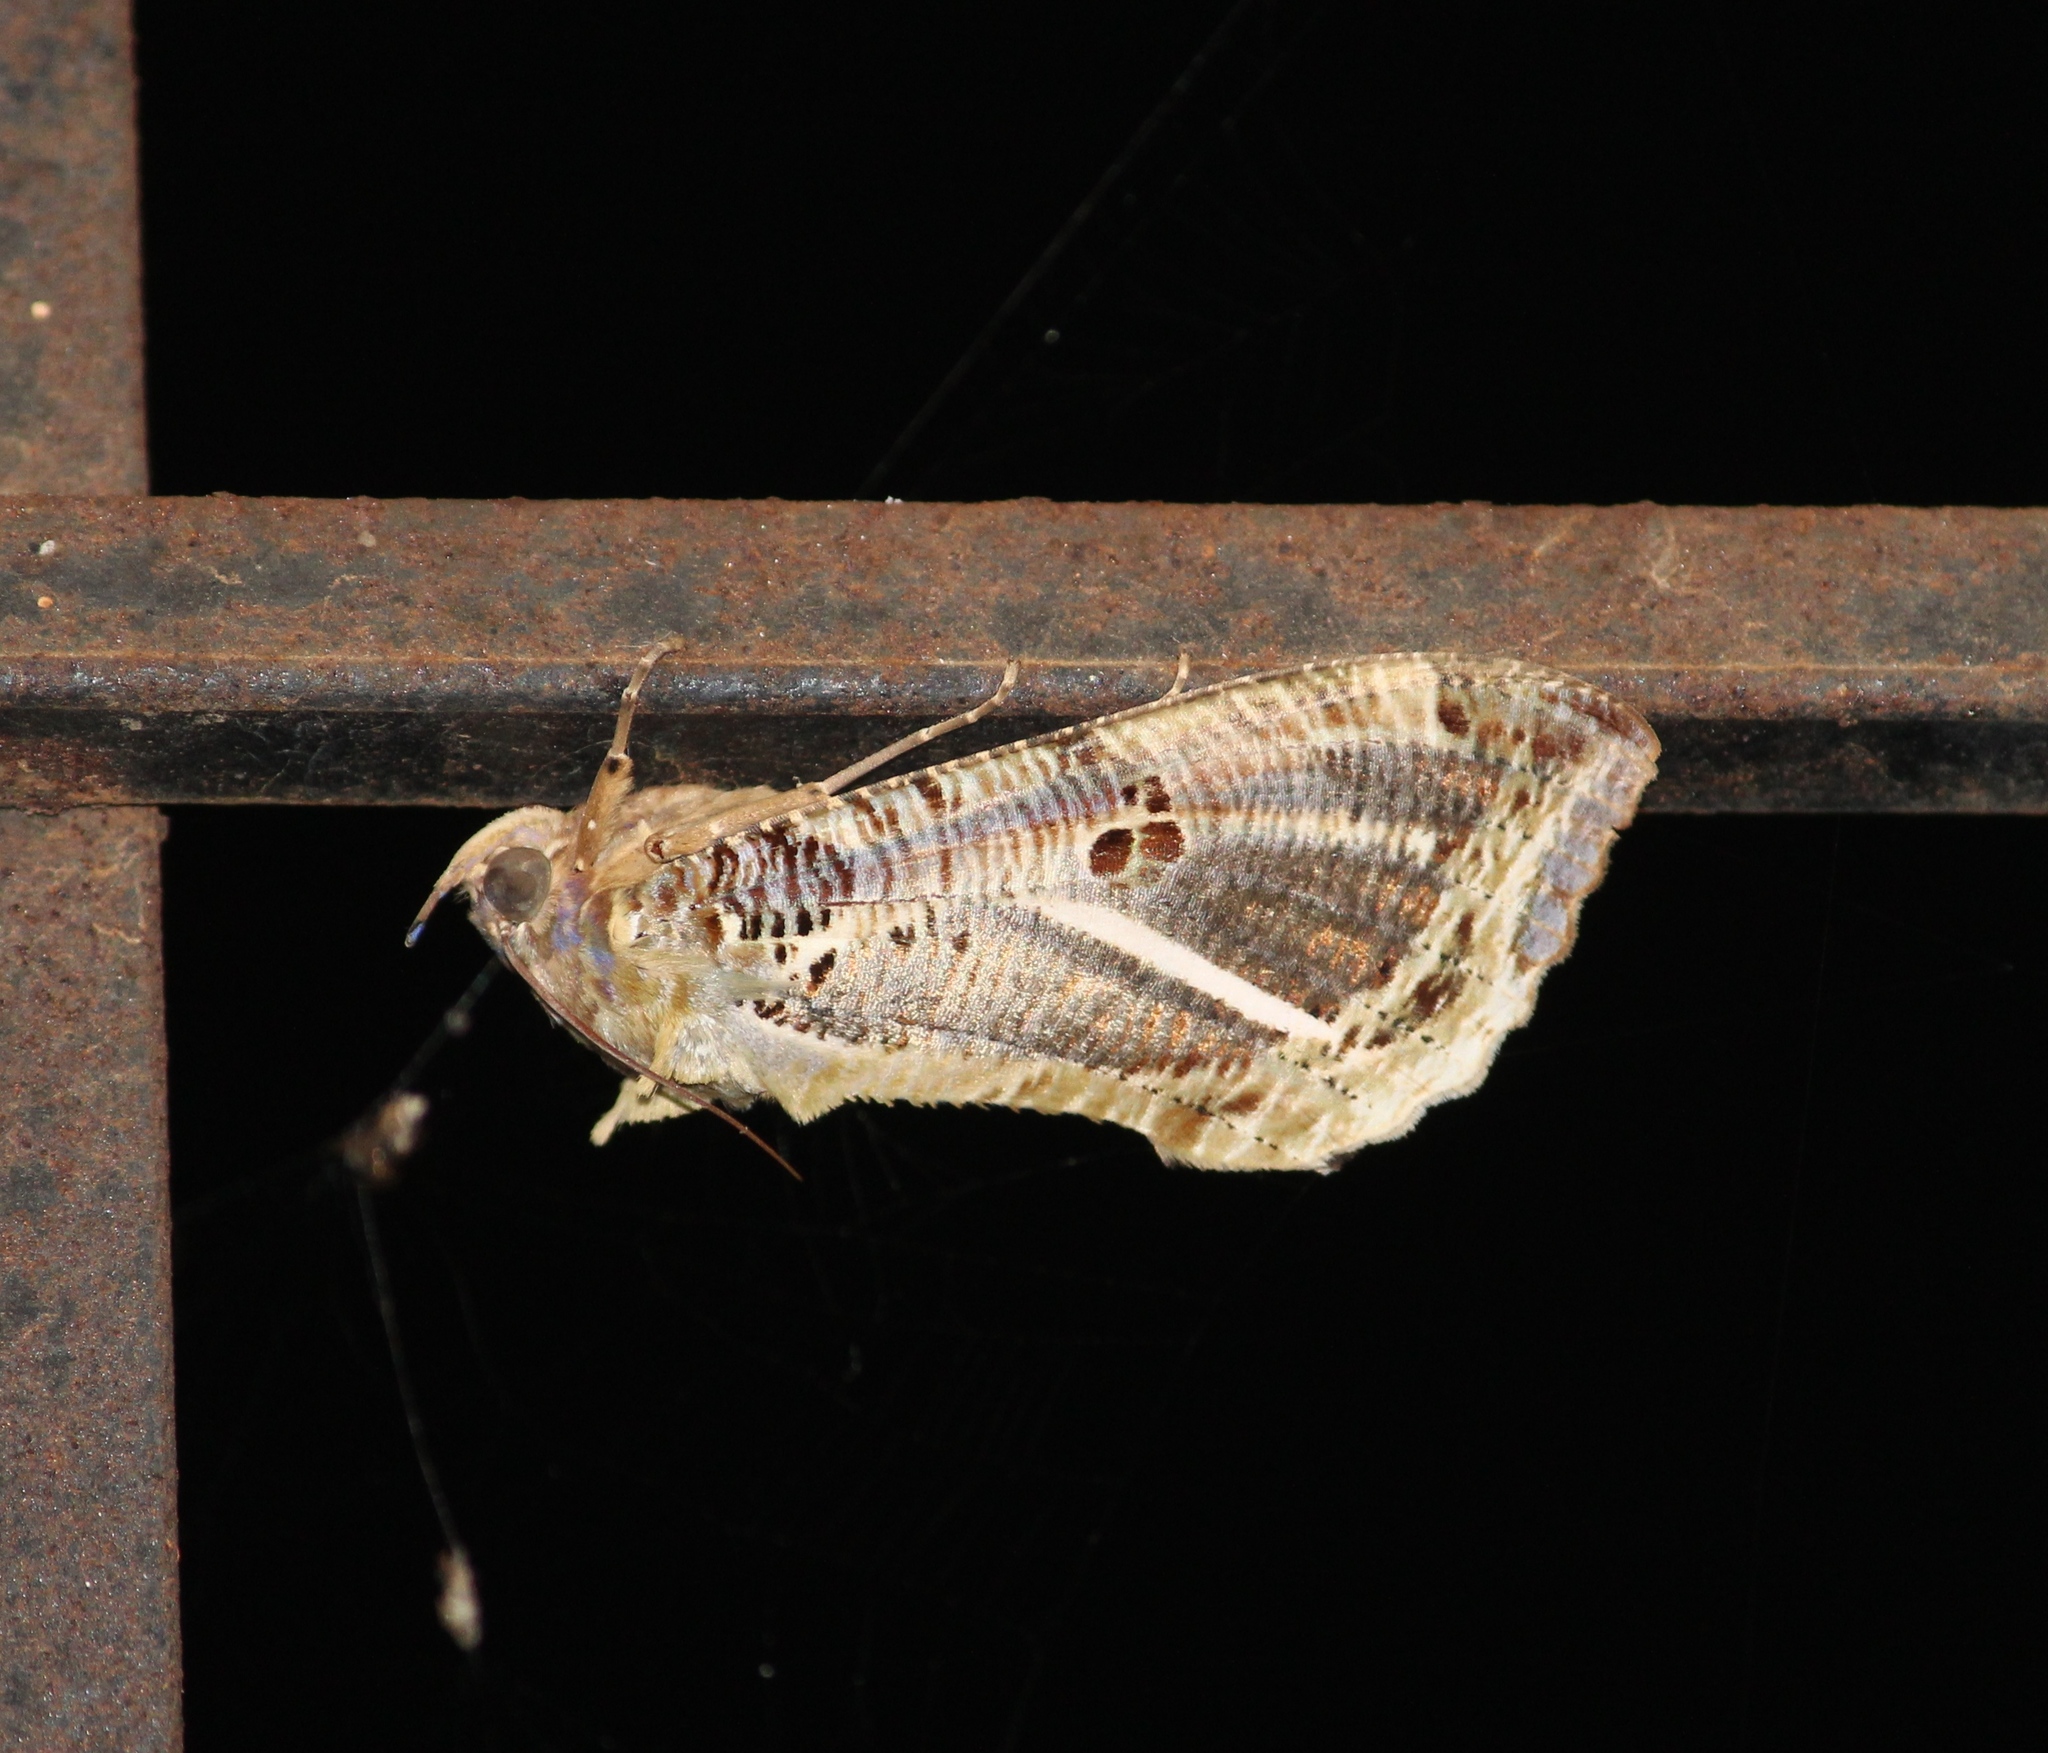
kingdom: Animalia
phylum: Arthropoda
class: Insecta
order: Lepidoptera
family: Erebidae
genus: Eudocima
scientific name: Eudocima materna
